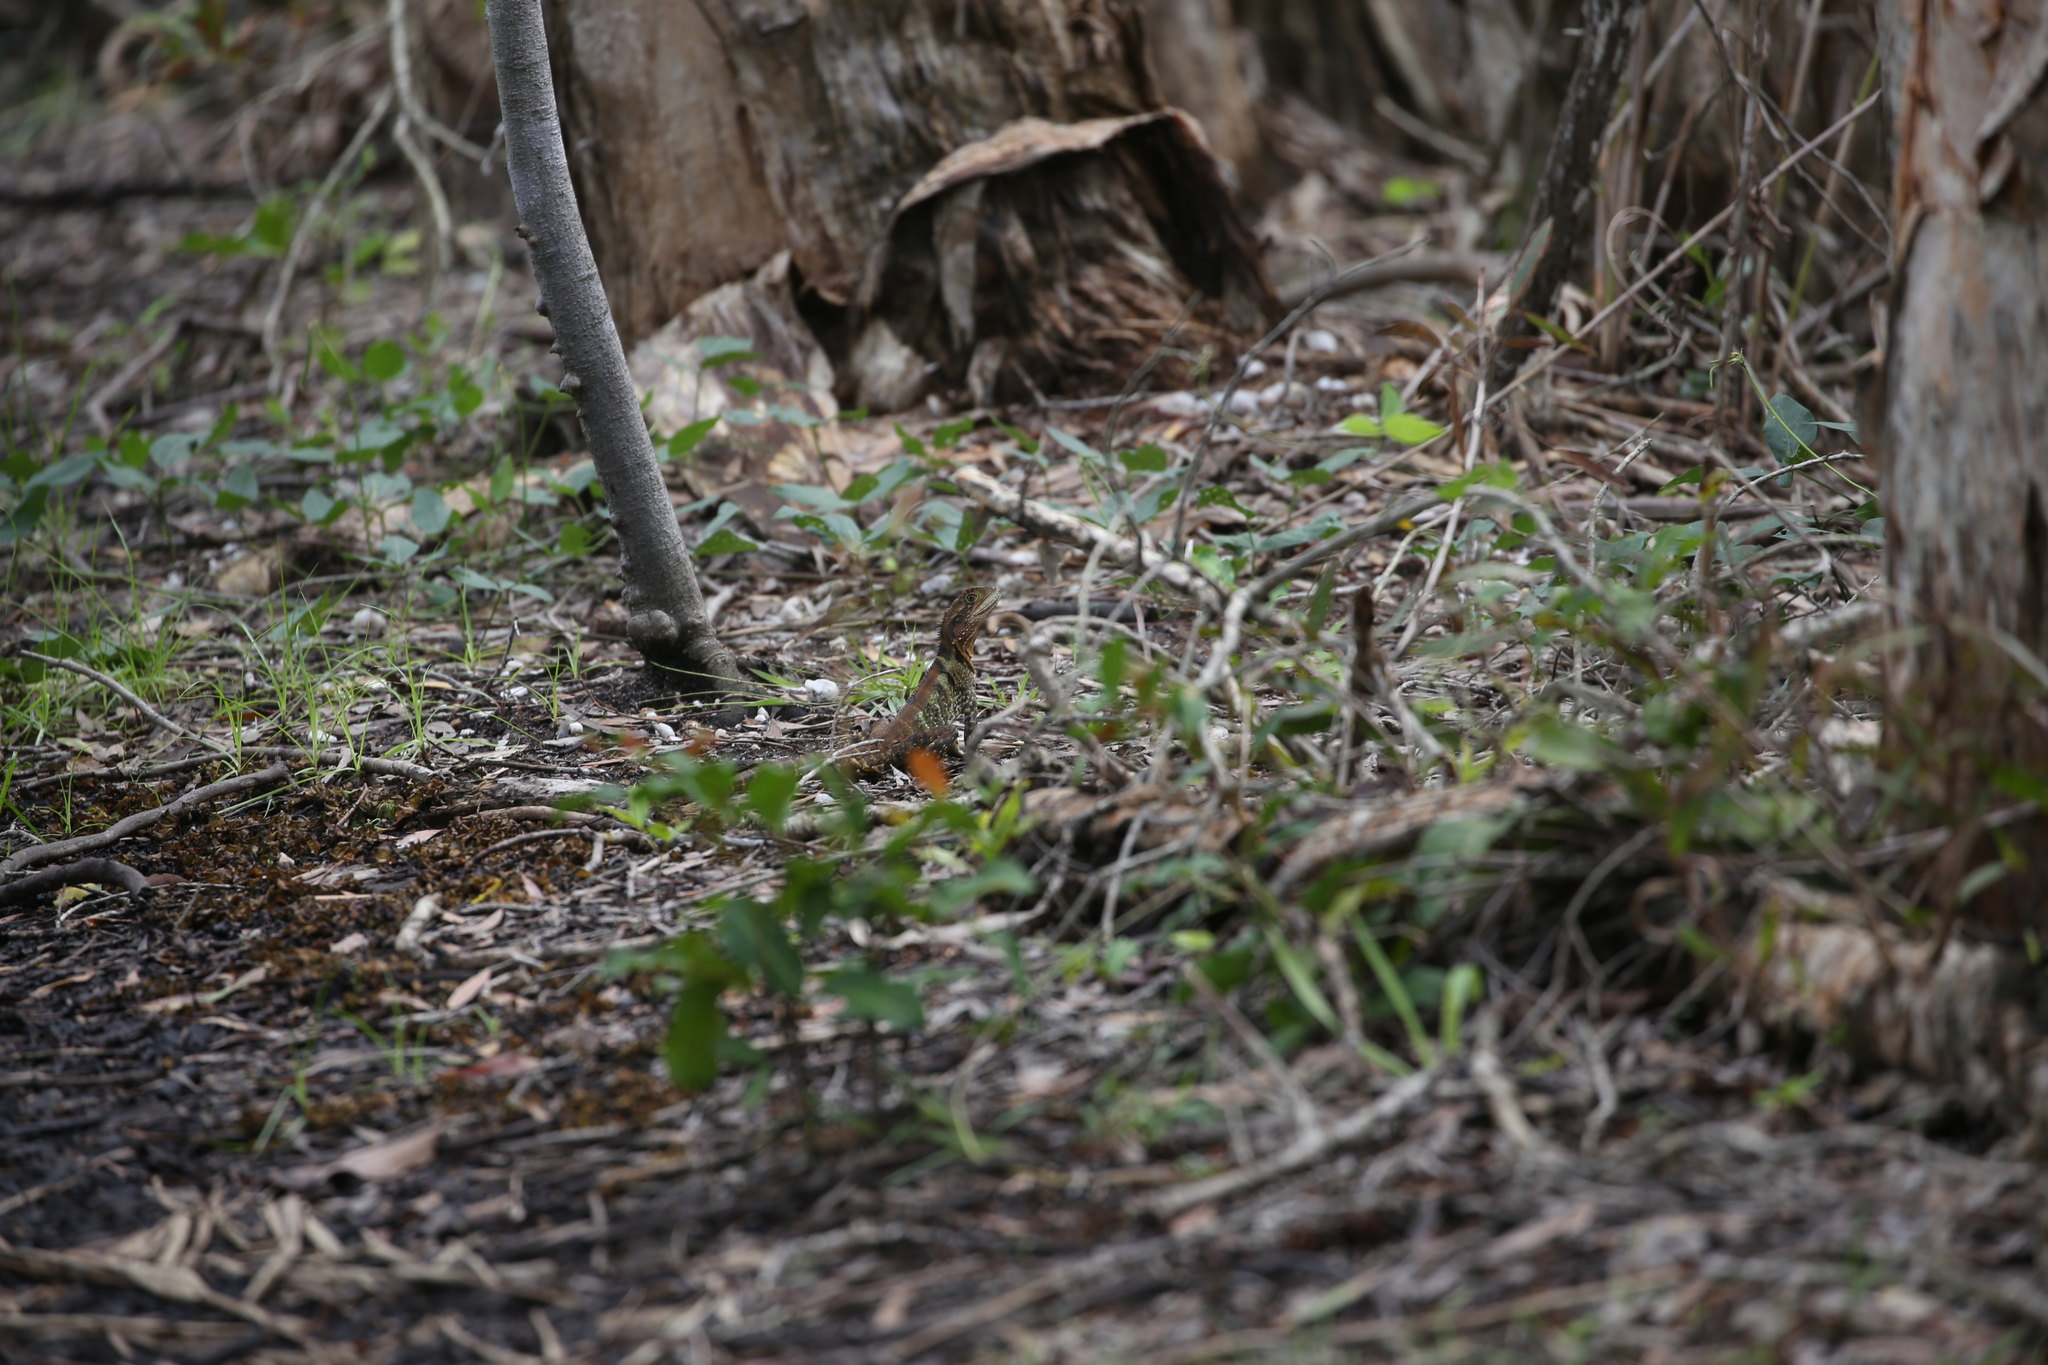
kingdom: Animalia
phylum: Chordata
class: Squamata
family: Agamidae
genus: Intellagama
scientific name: Intellagama lesueurii
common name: Eastern water dragon
